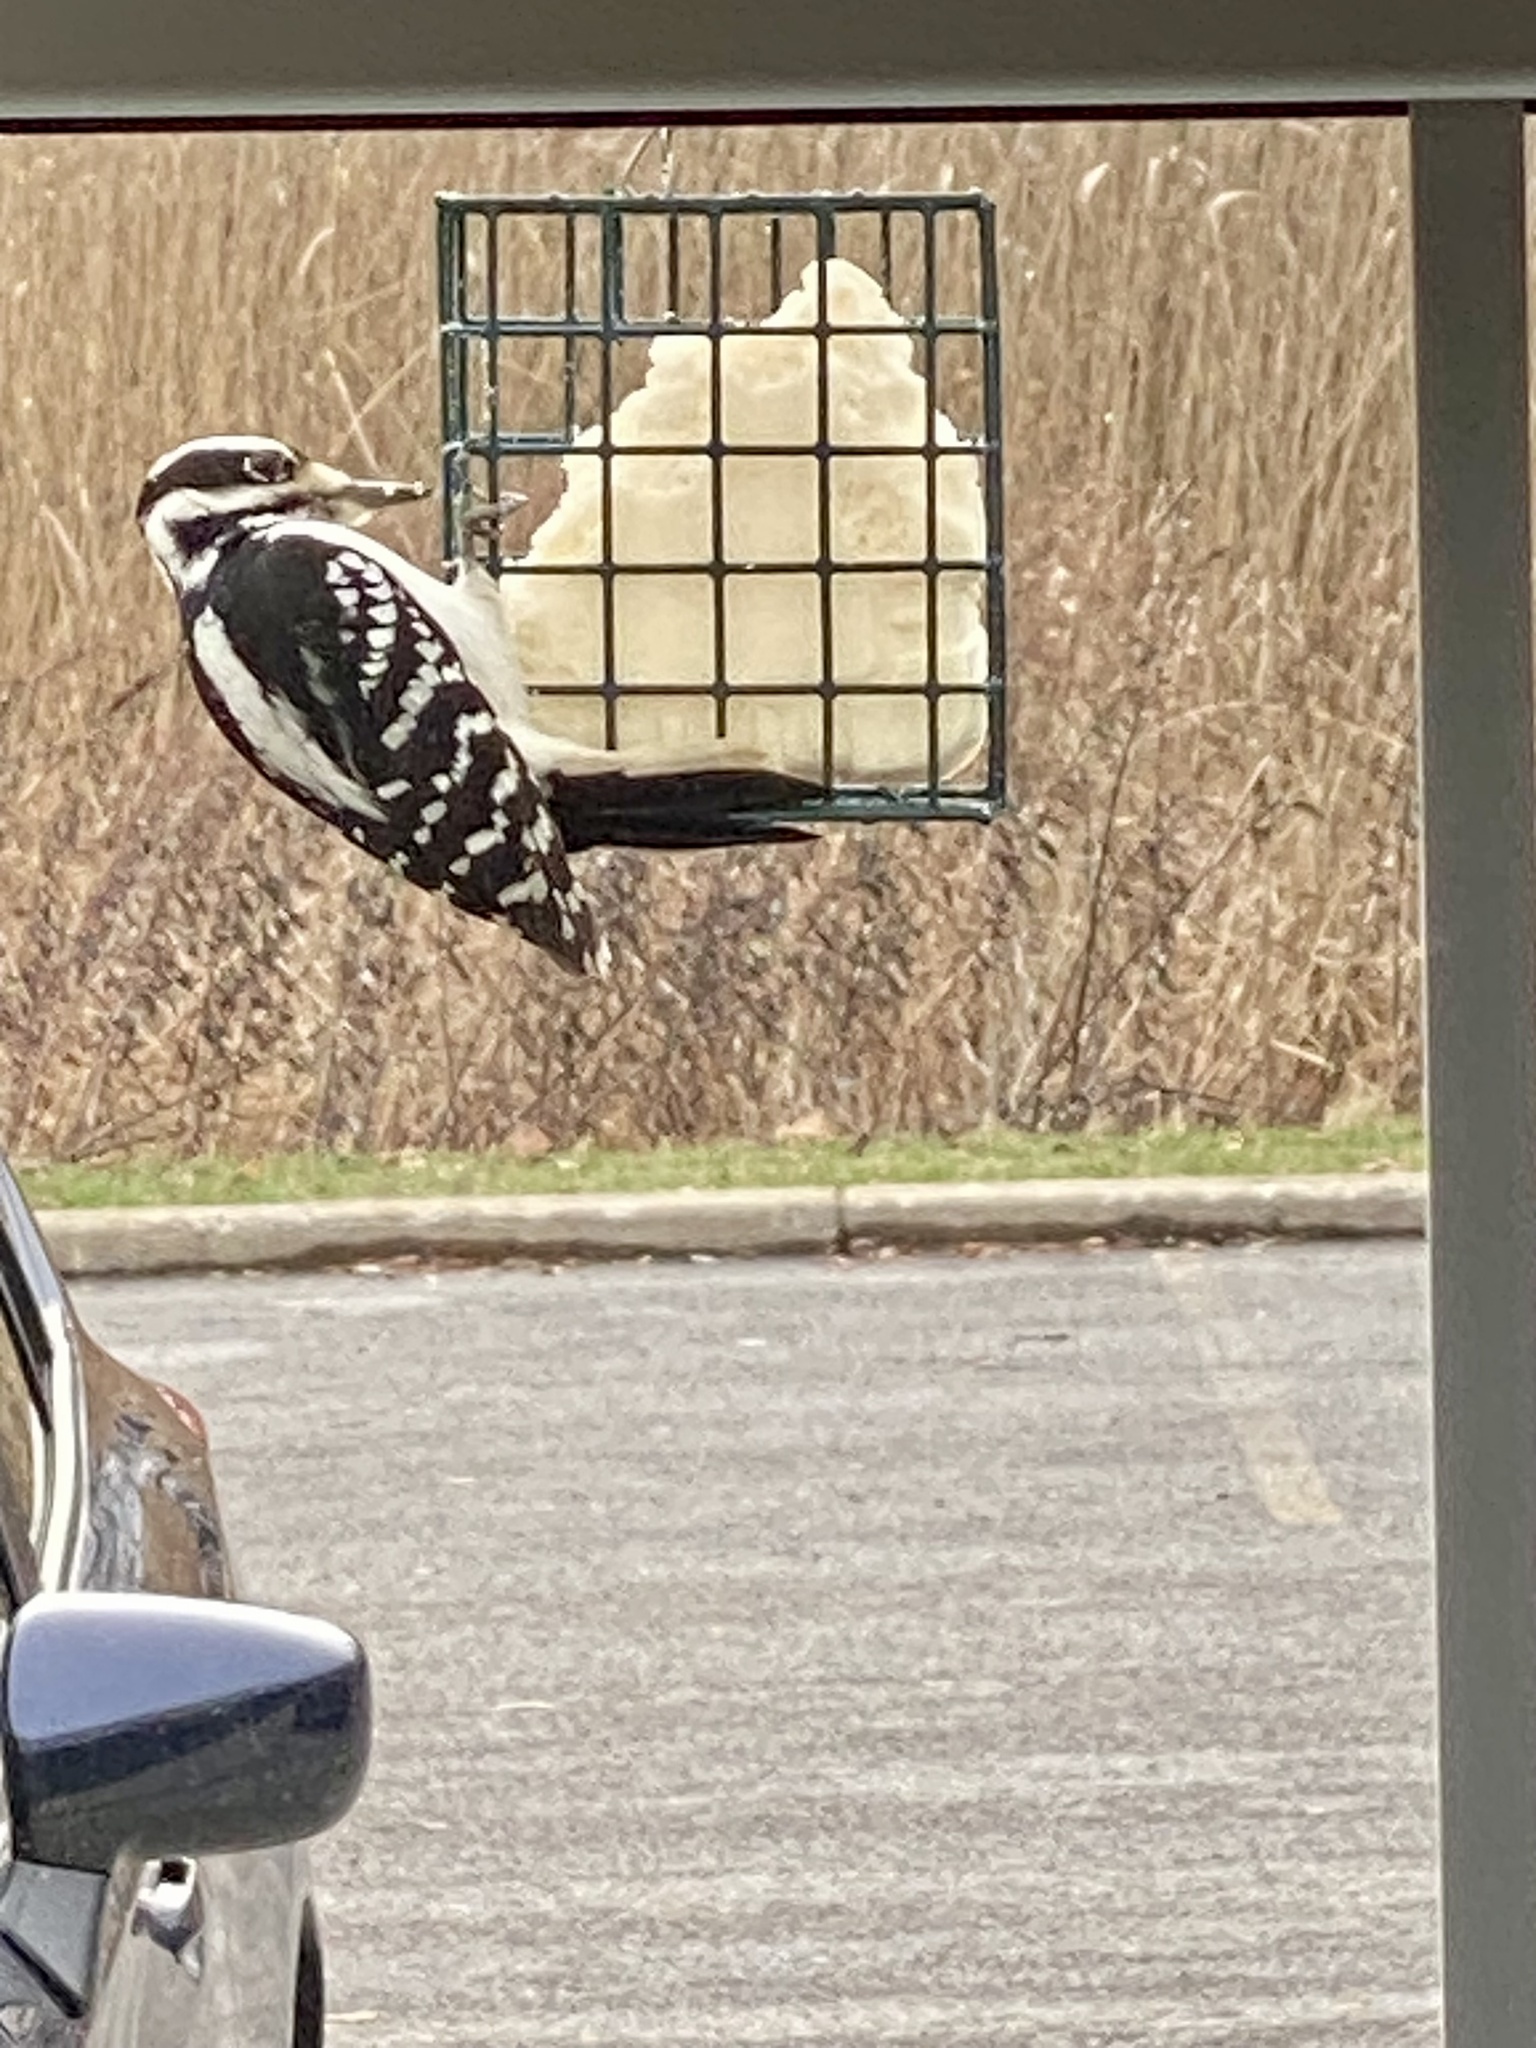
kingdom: Animalia
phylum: Chordata
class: Aves
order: Piciformes
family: Picidae
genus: Leuconotopicus
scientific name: Leuconotopicus villosus
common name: Hairy woodpecker
